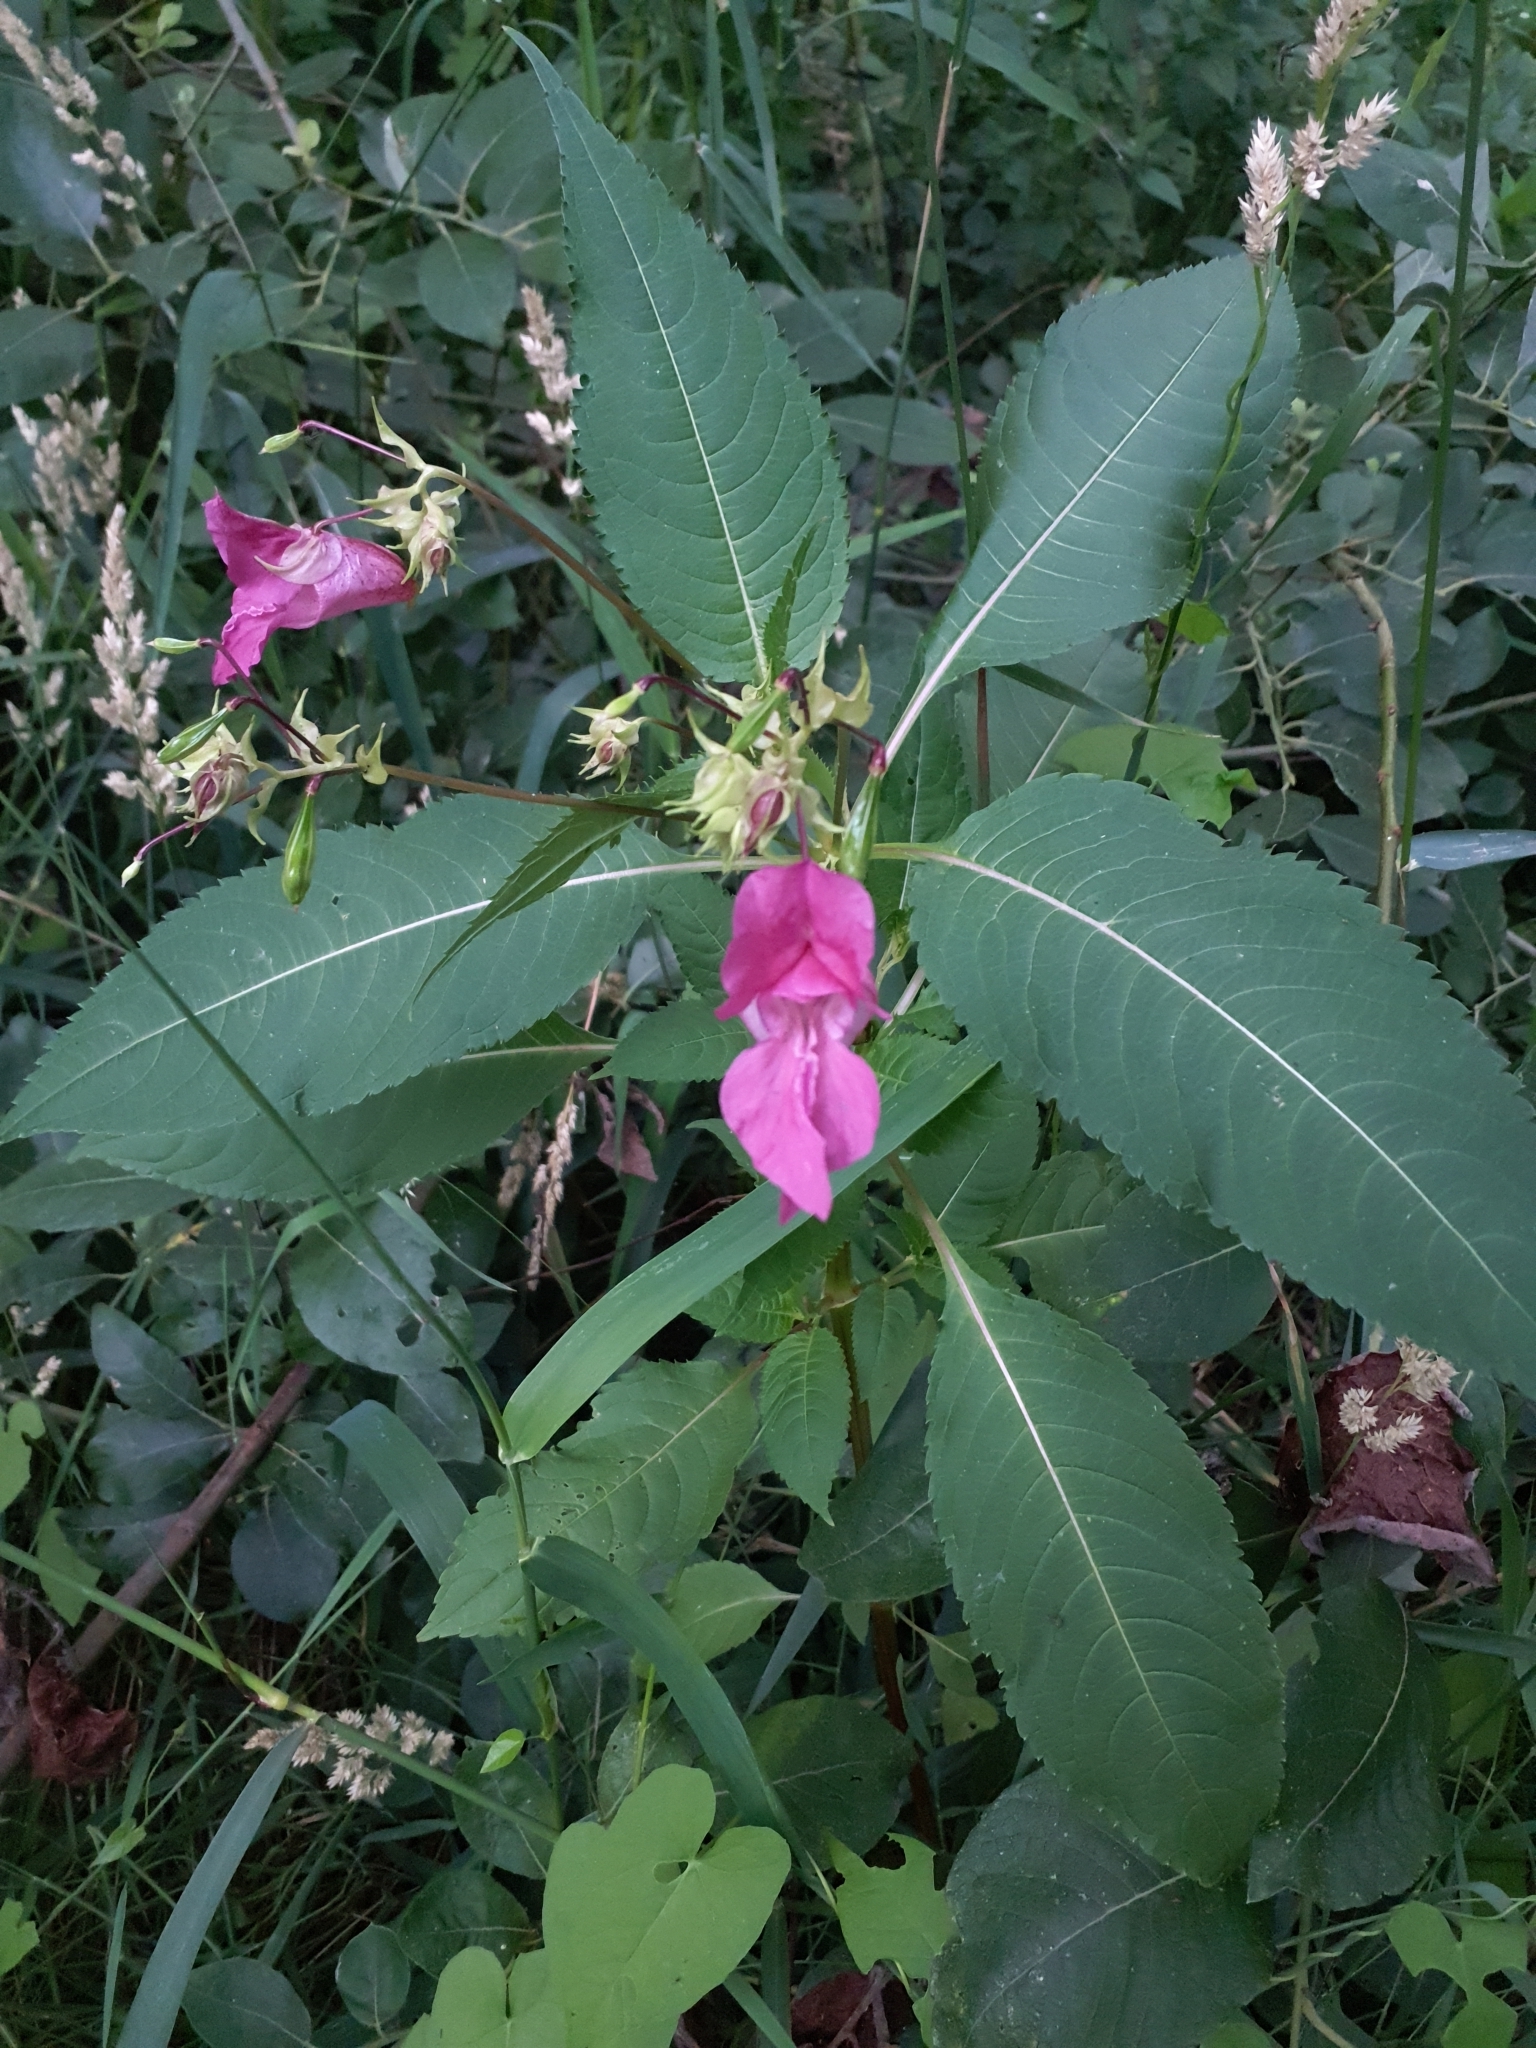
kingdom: Plantae
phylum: Tracheophyta
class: Magnoliopsida
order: Ericales
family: Balsaminaceae
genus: Impatiens
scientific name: Impatiens glandulifera
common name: Himalayan balsam
